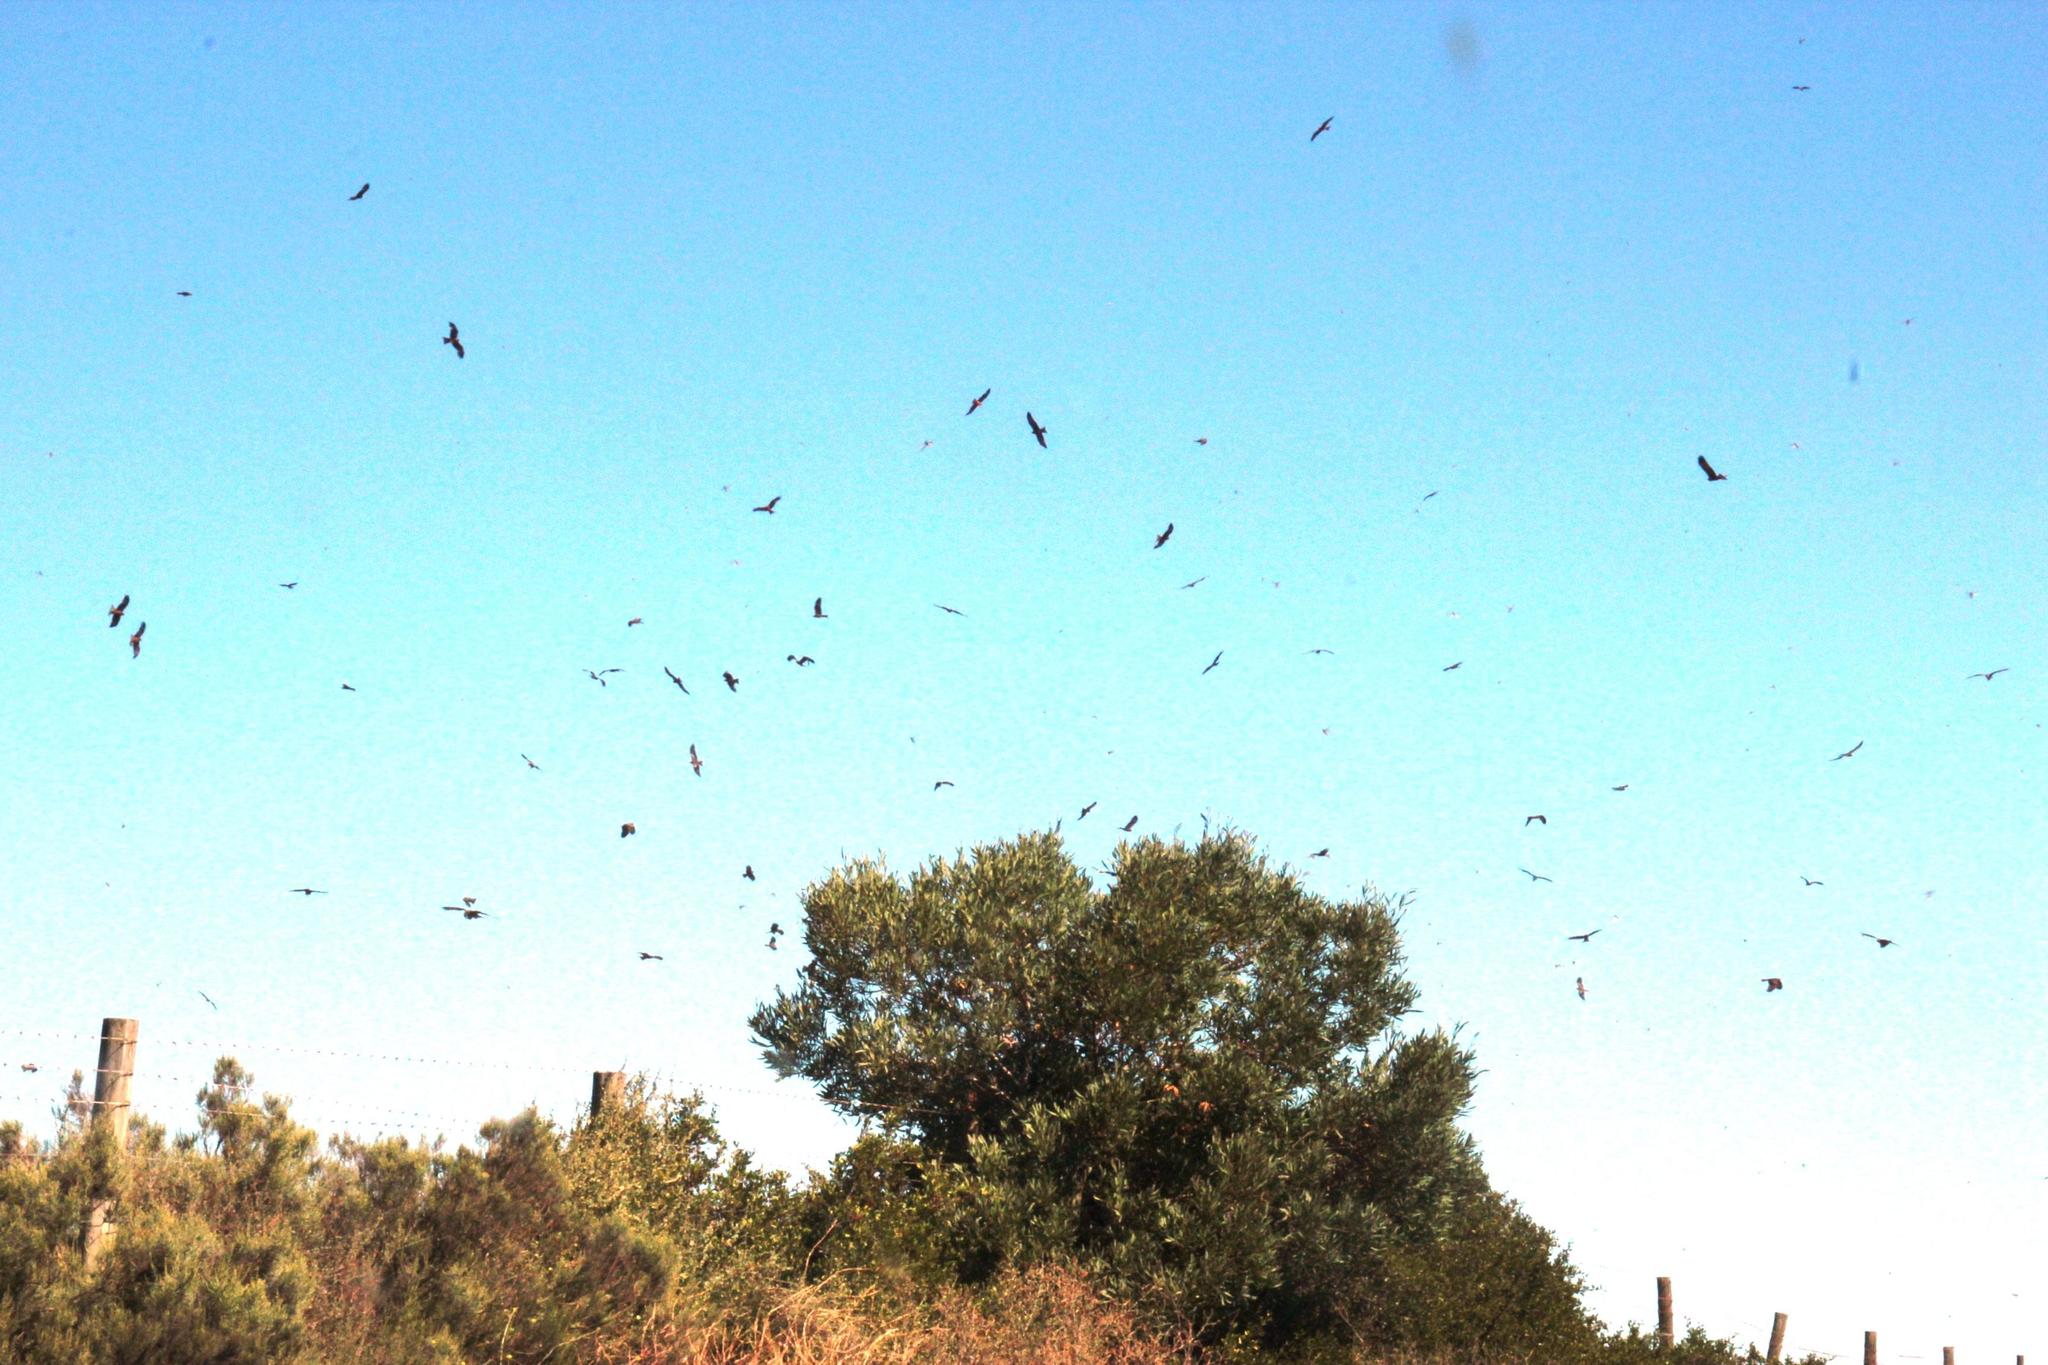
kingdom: Animalia
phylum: Chordata
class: Aves
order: Accipitriformes
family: Accipitridae
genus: Milvus
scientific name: Milvus migrans
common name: Black kite
